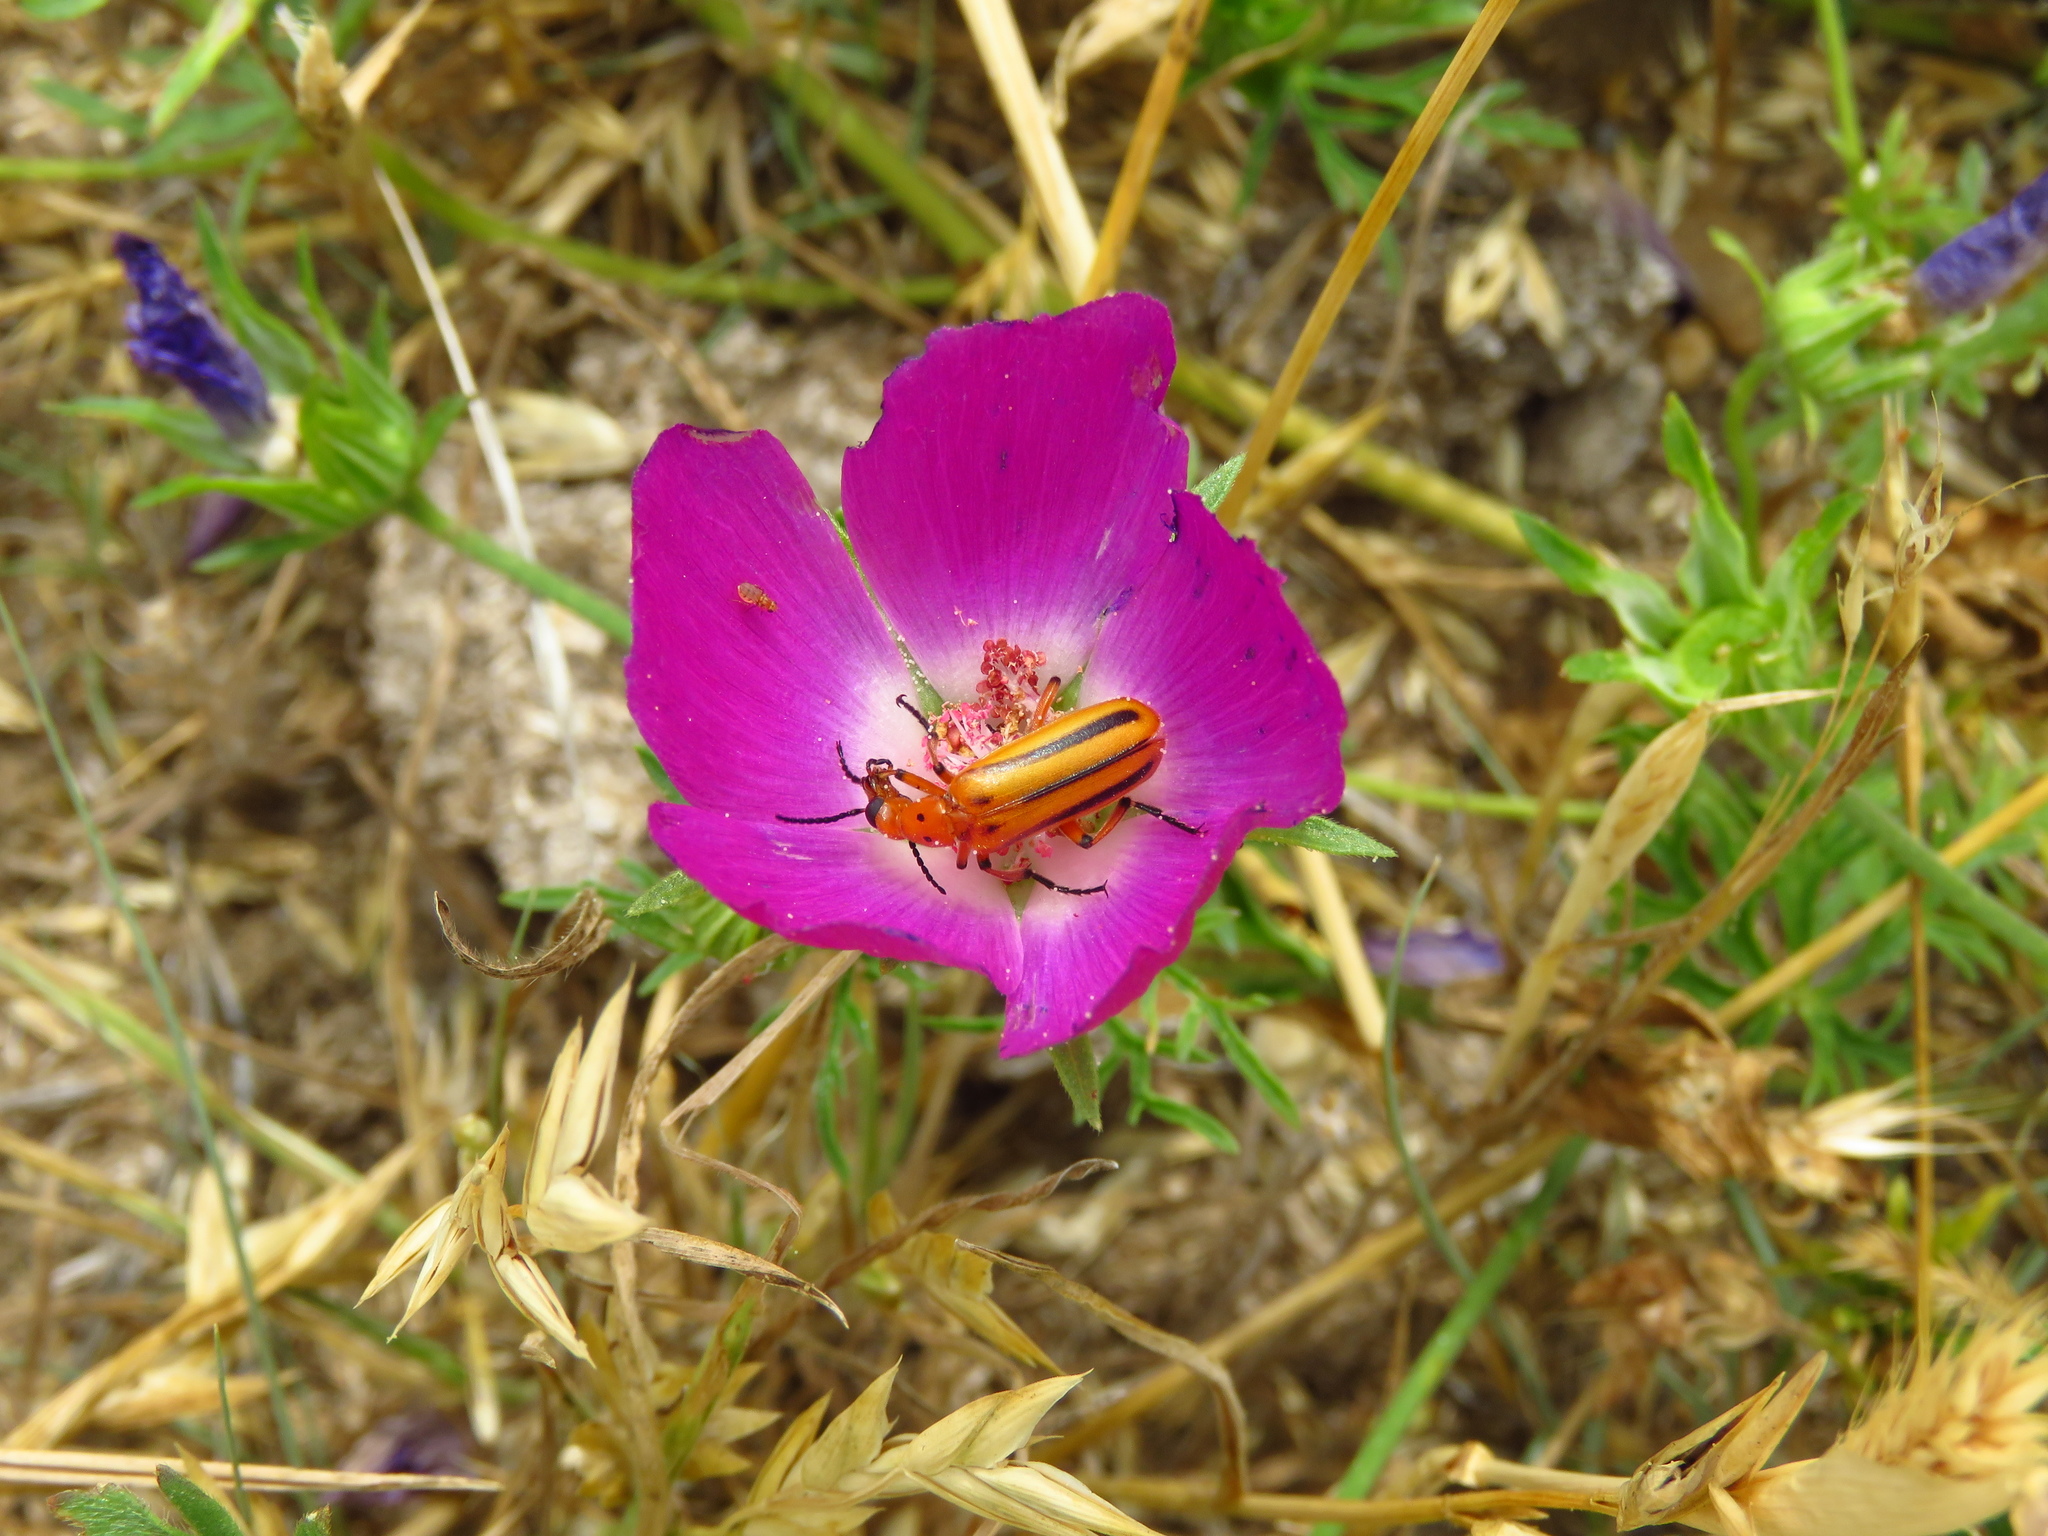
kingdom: Plantae
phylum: Tracheophyta
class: Magnoliopsida
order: Malvales
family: Malvaceae
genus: Callirhoe
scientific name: Callirhoe involucrata
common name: Purple poppy-mallow
